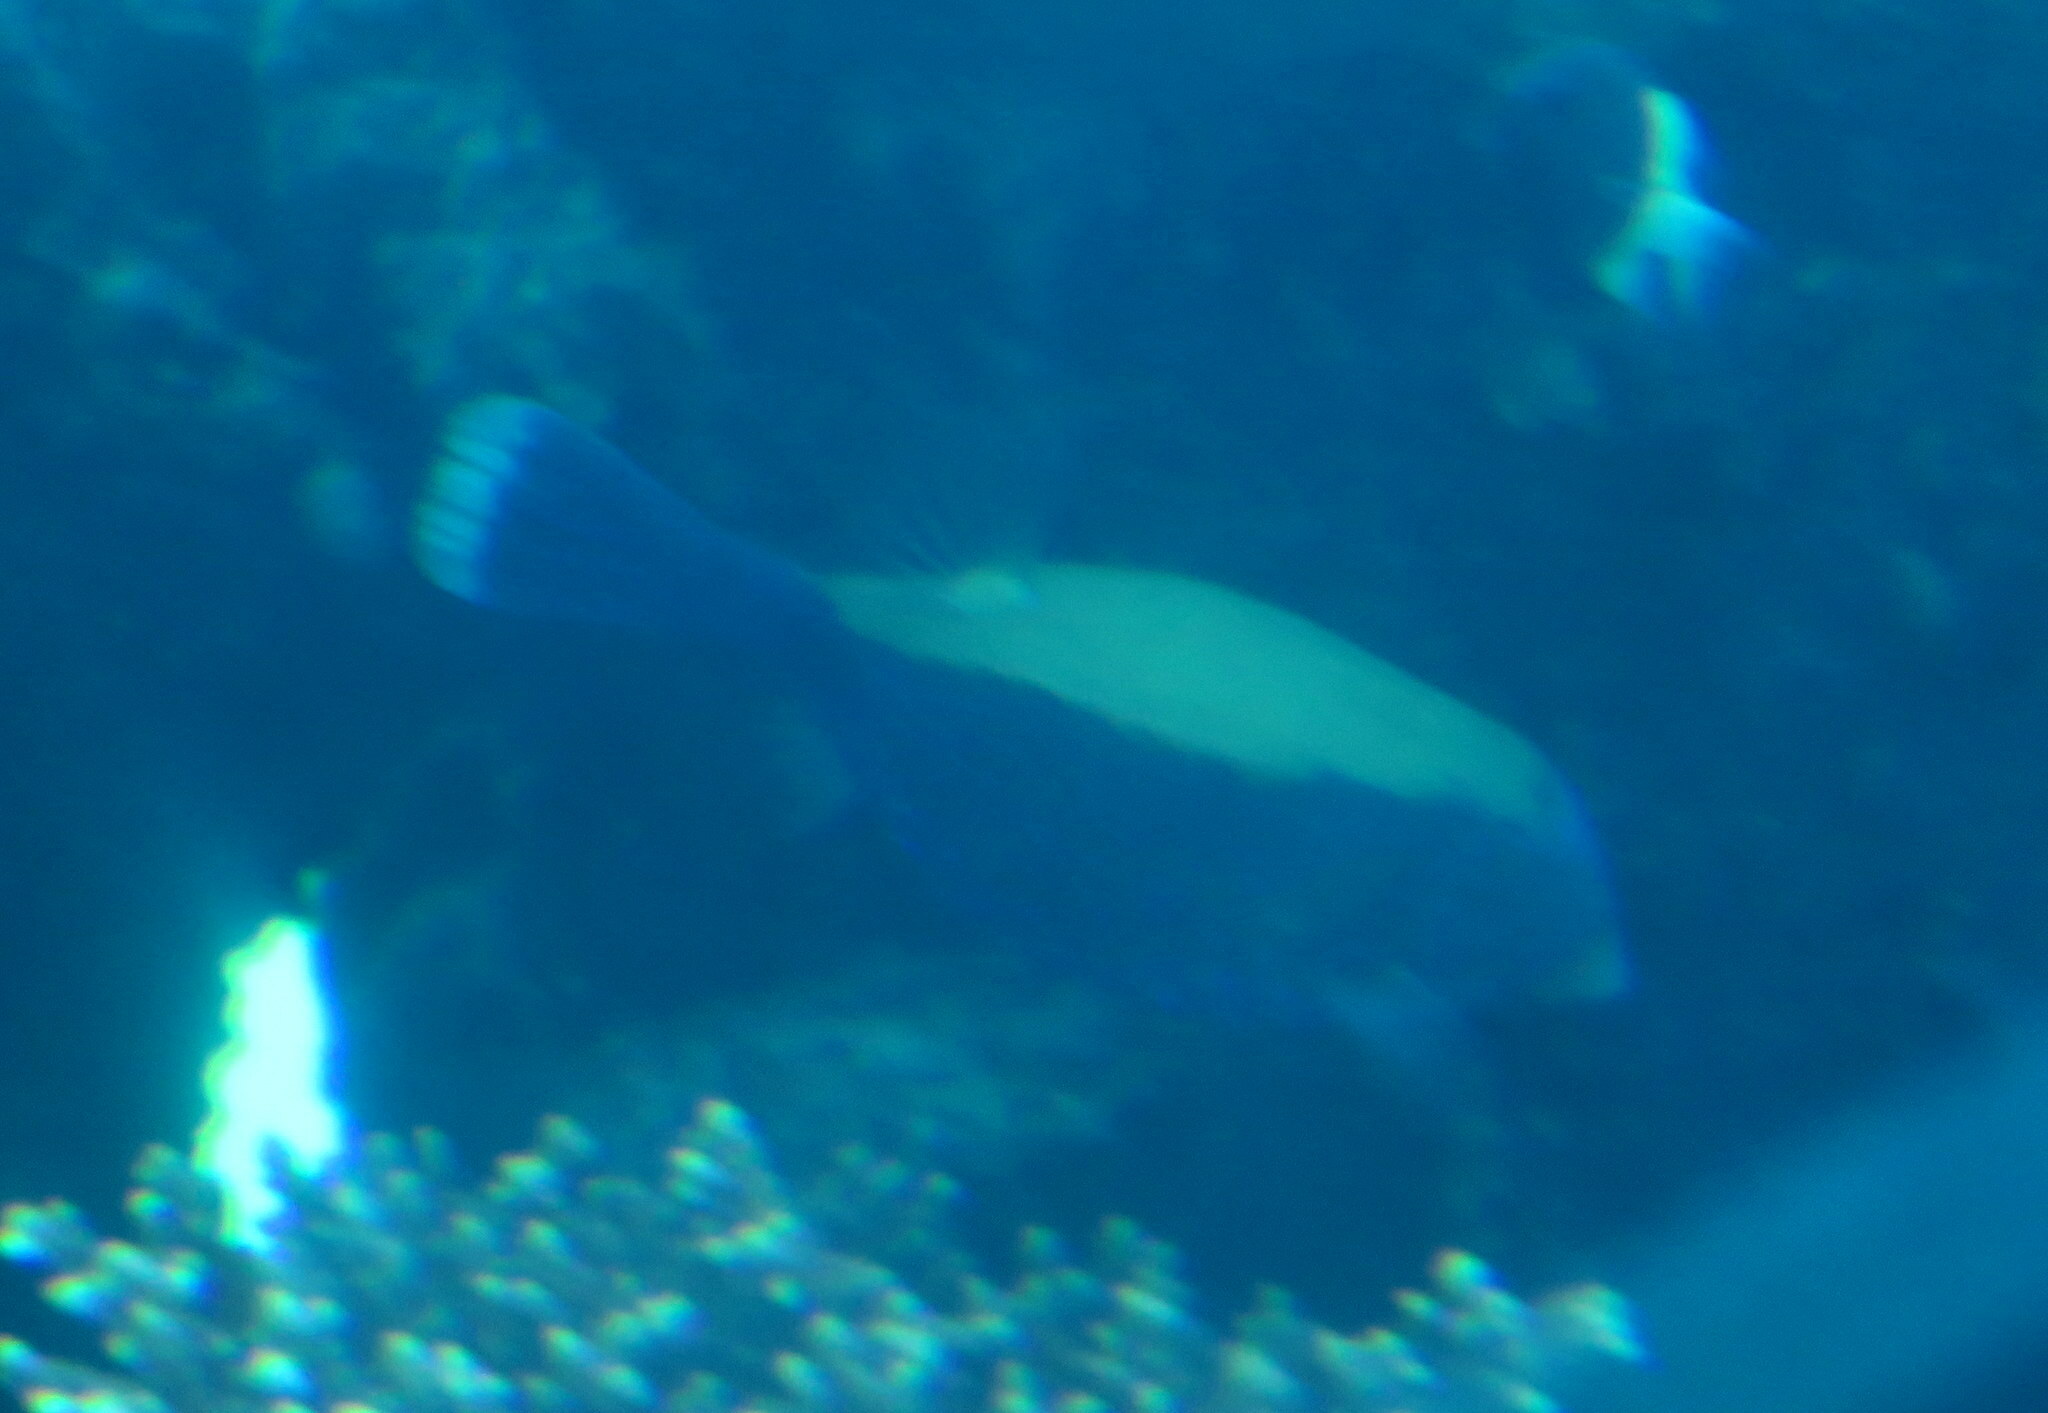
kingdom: Animalia
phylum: Chordata
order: Tetraodontiformes
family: Ostraciidae
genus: Ostracion
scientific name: Ostracion cyanurus
